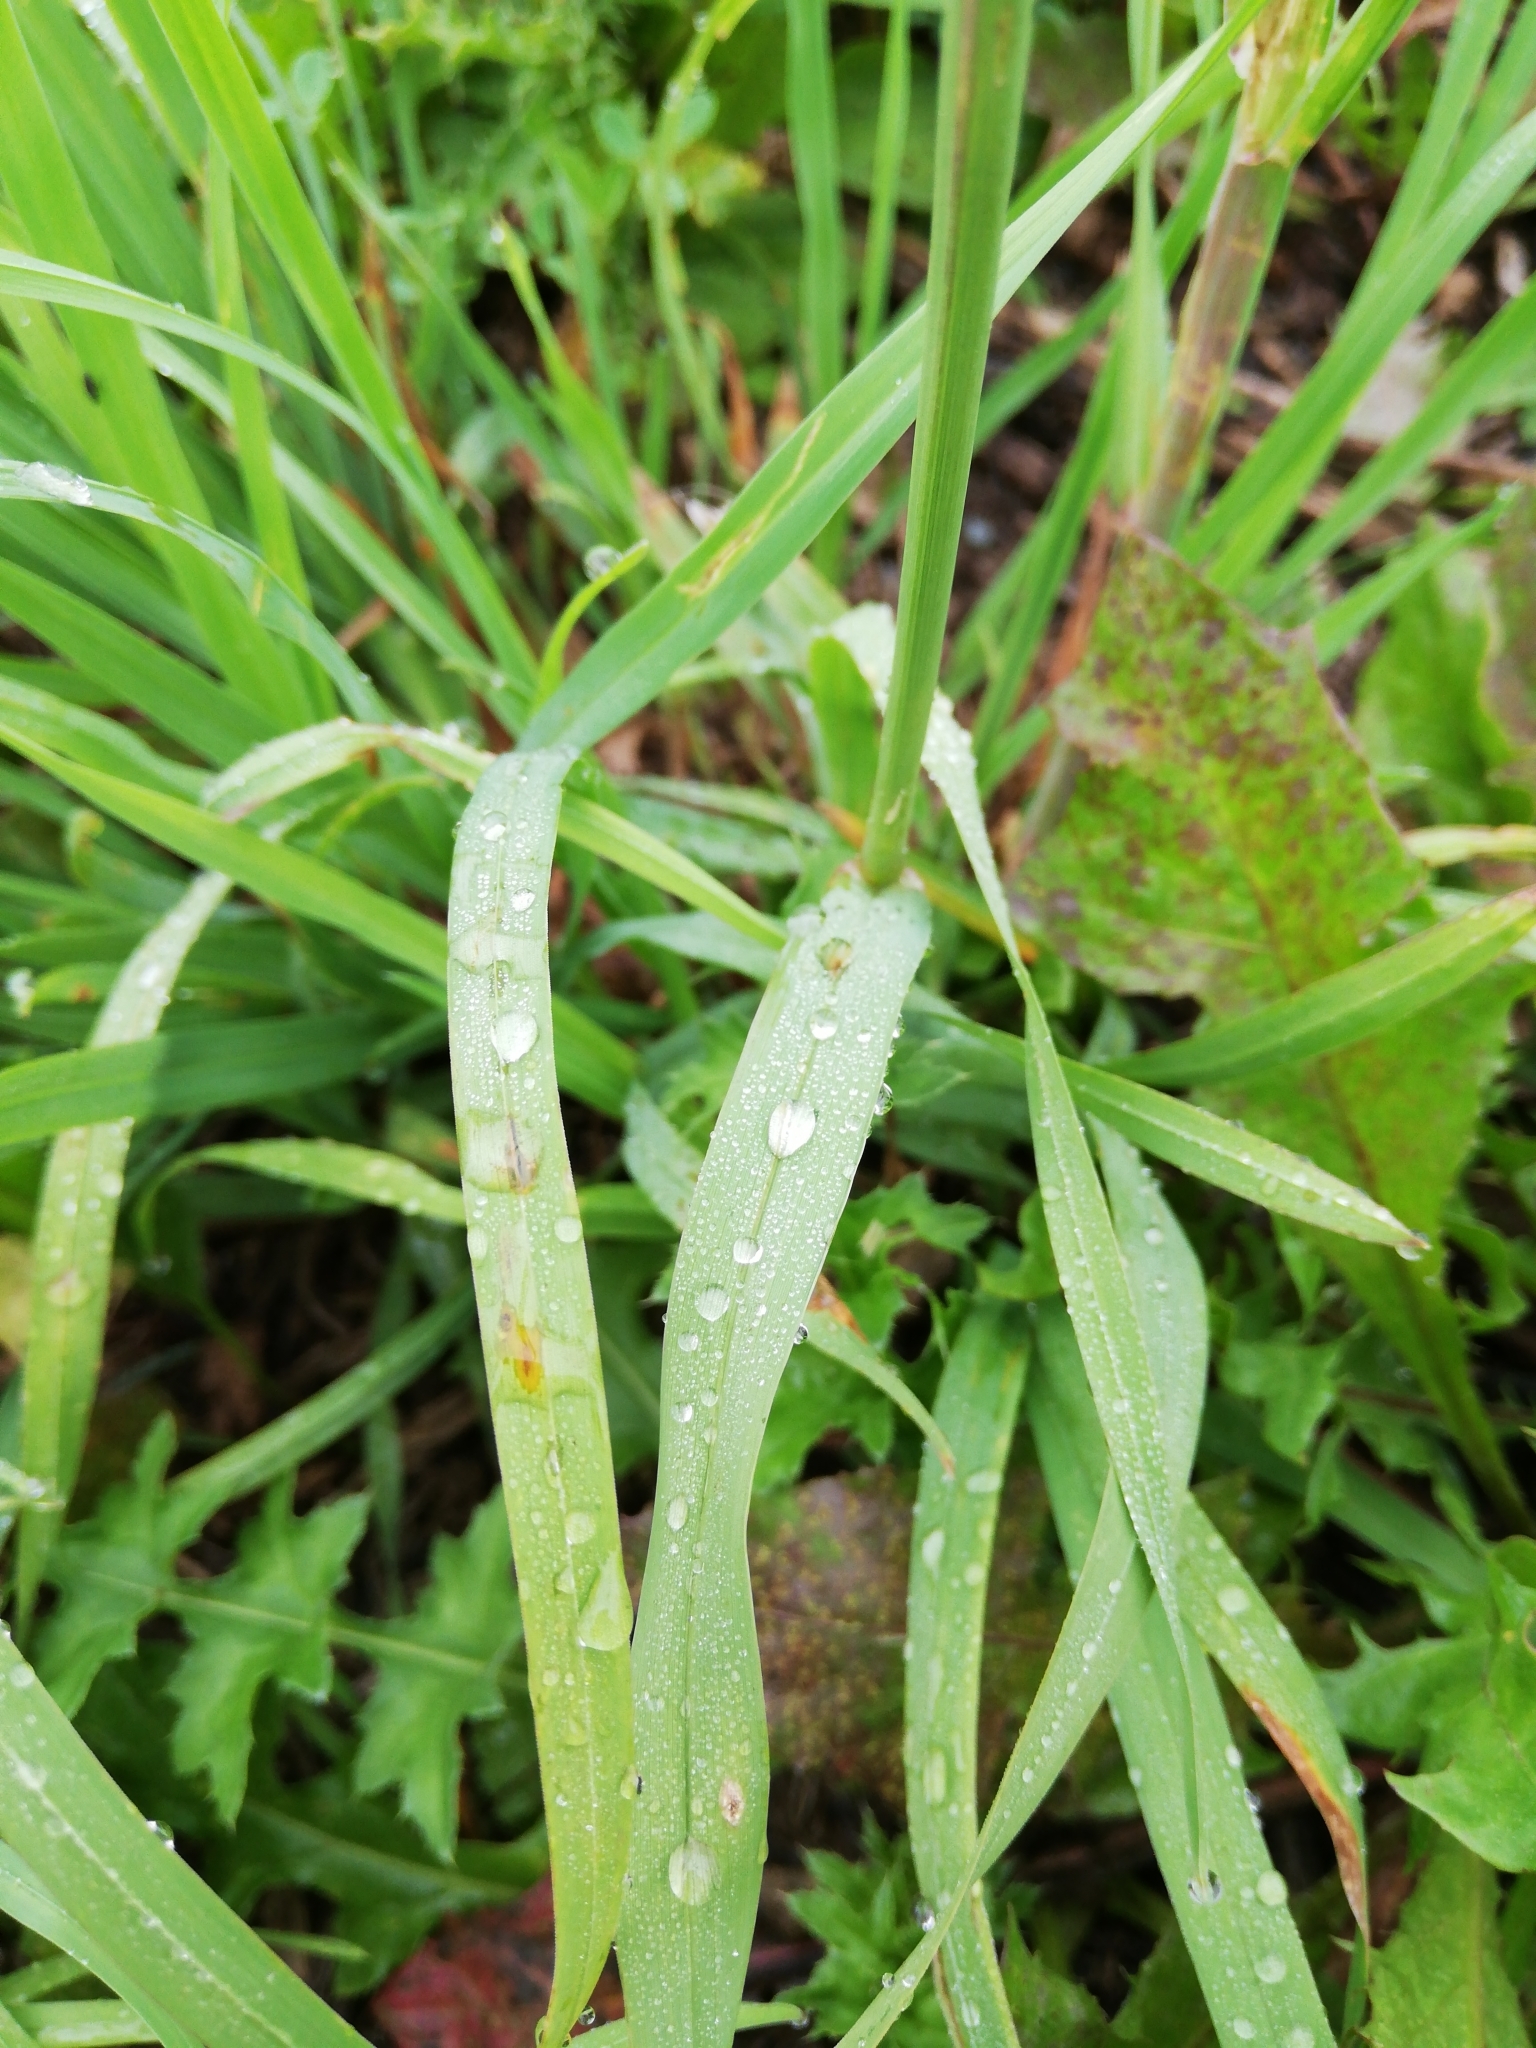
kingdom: Plantae
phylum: Tracheophyta
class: Liliopsida
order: Poales
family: Poaceae
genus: Dactylis
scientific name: Dactylis glomerata
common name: Orchardgrass
